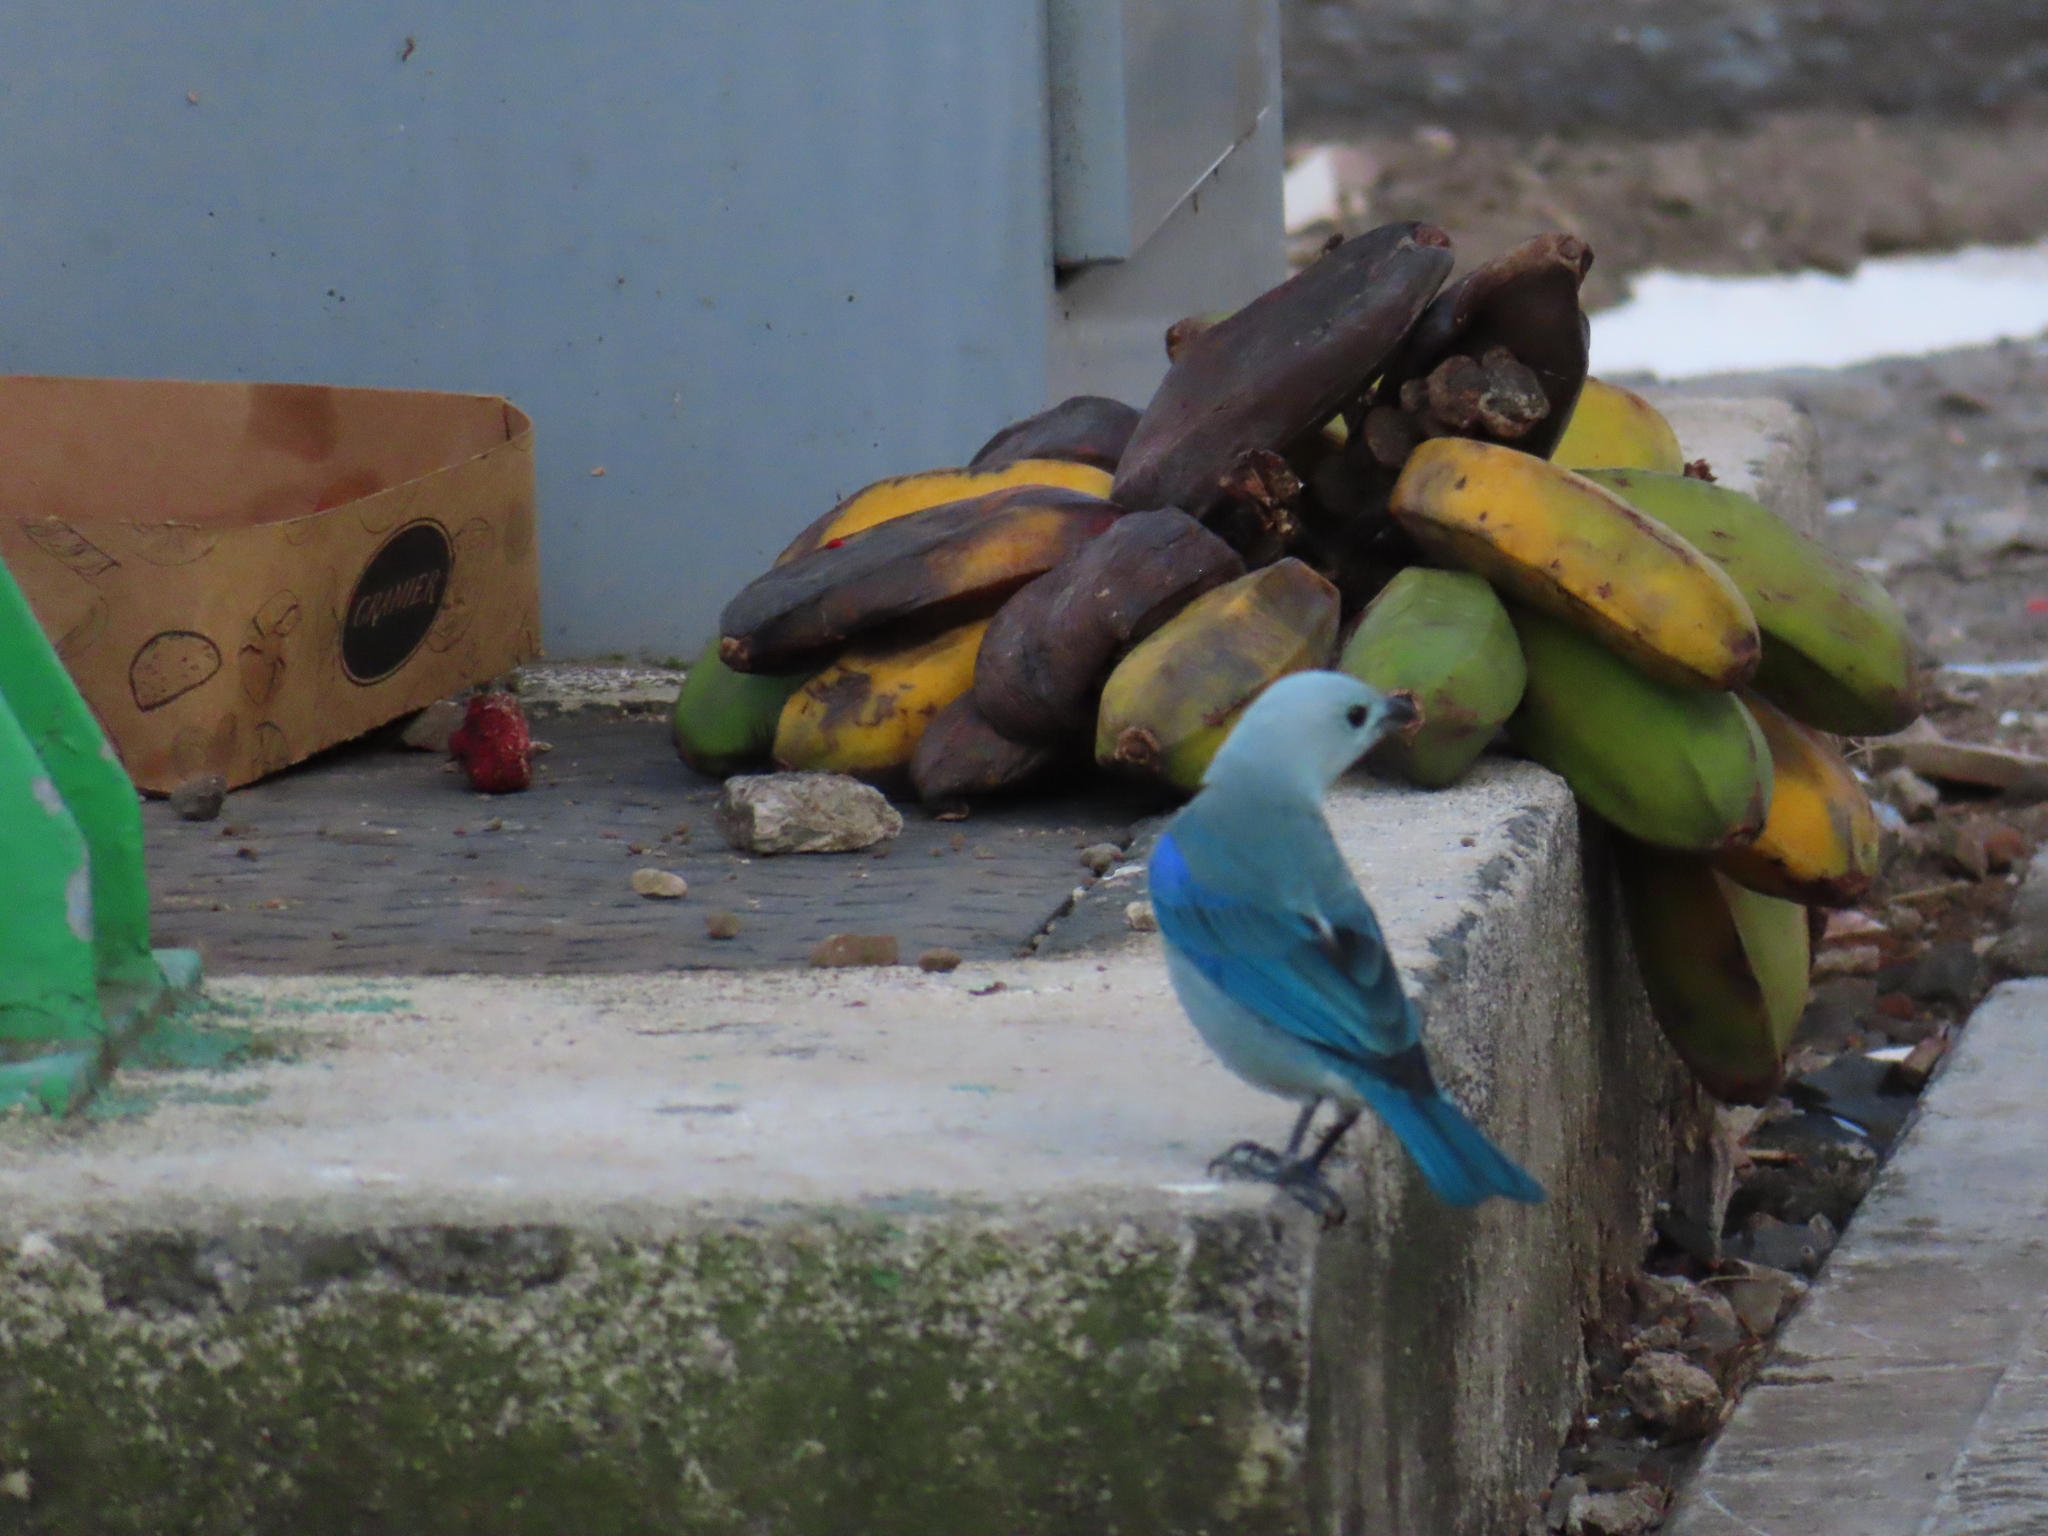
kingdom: Animalia
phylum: Chordata
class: Aves
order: Passeriformes
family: Thraupidae
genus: Thraupis
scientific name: Thraupis episcopus
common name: Blue-grey tanager
